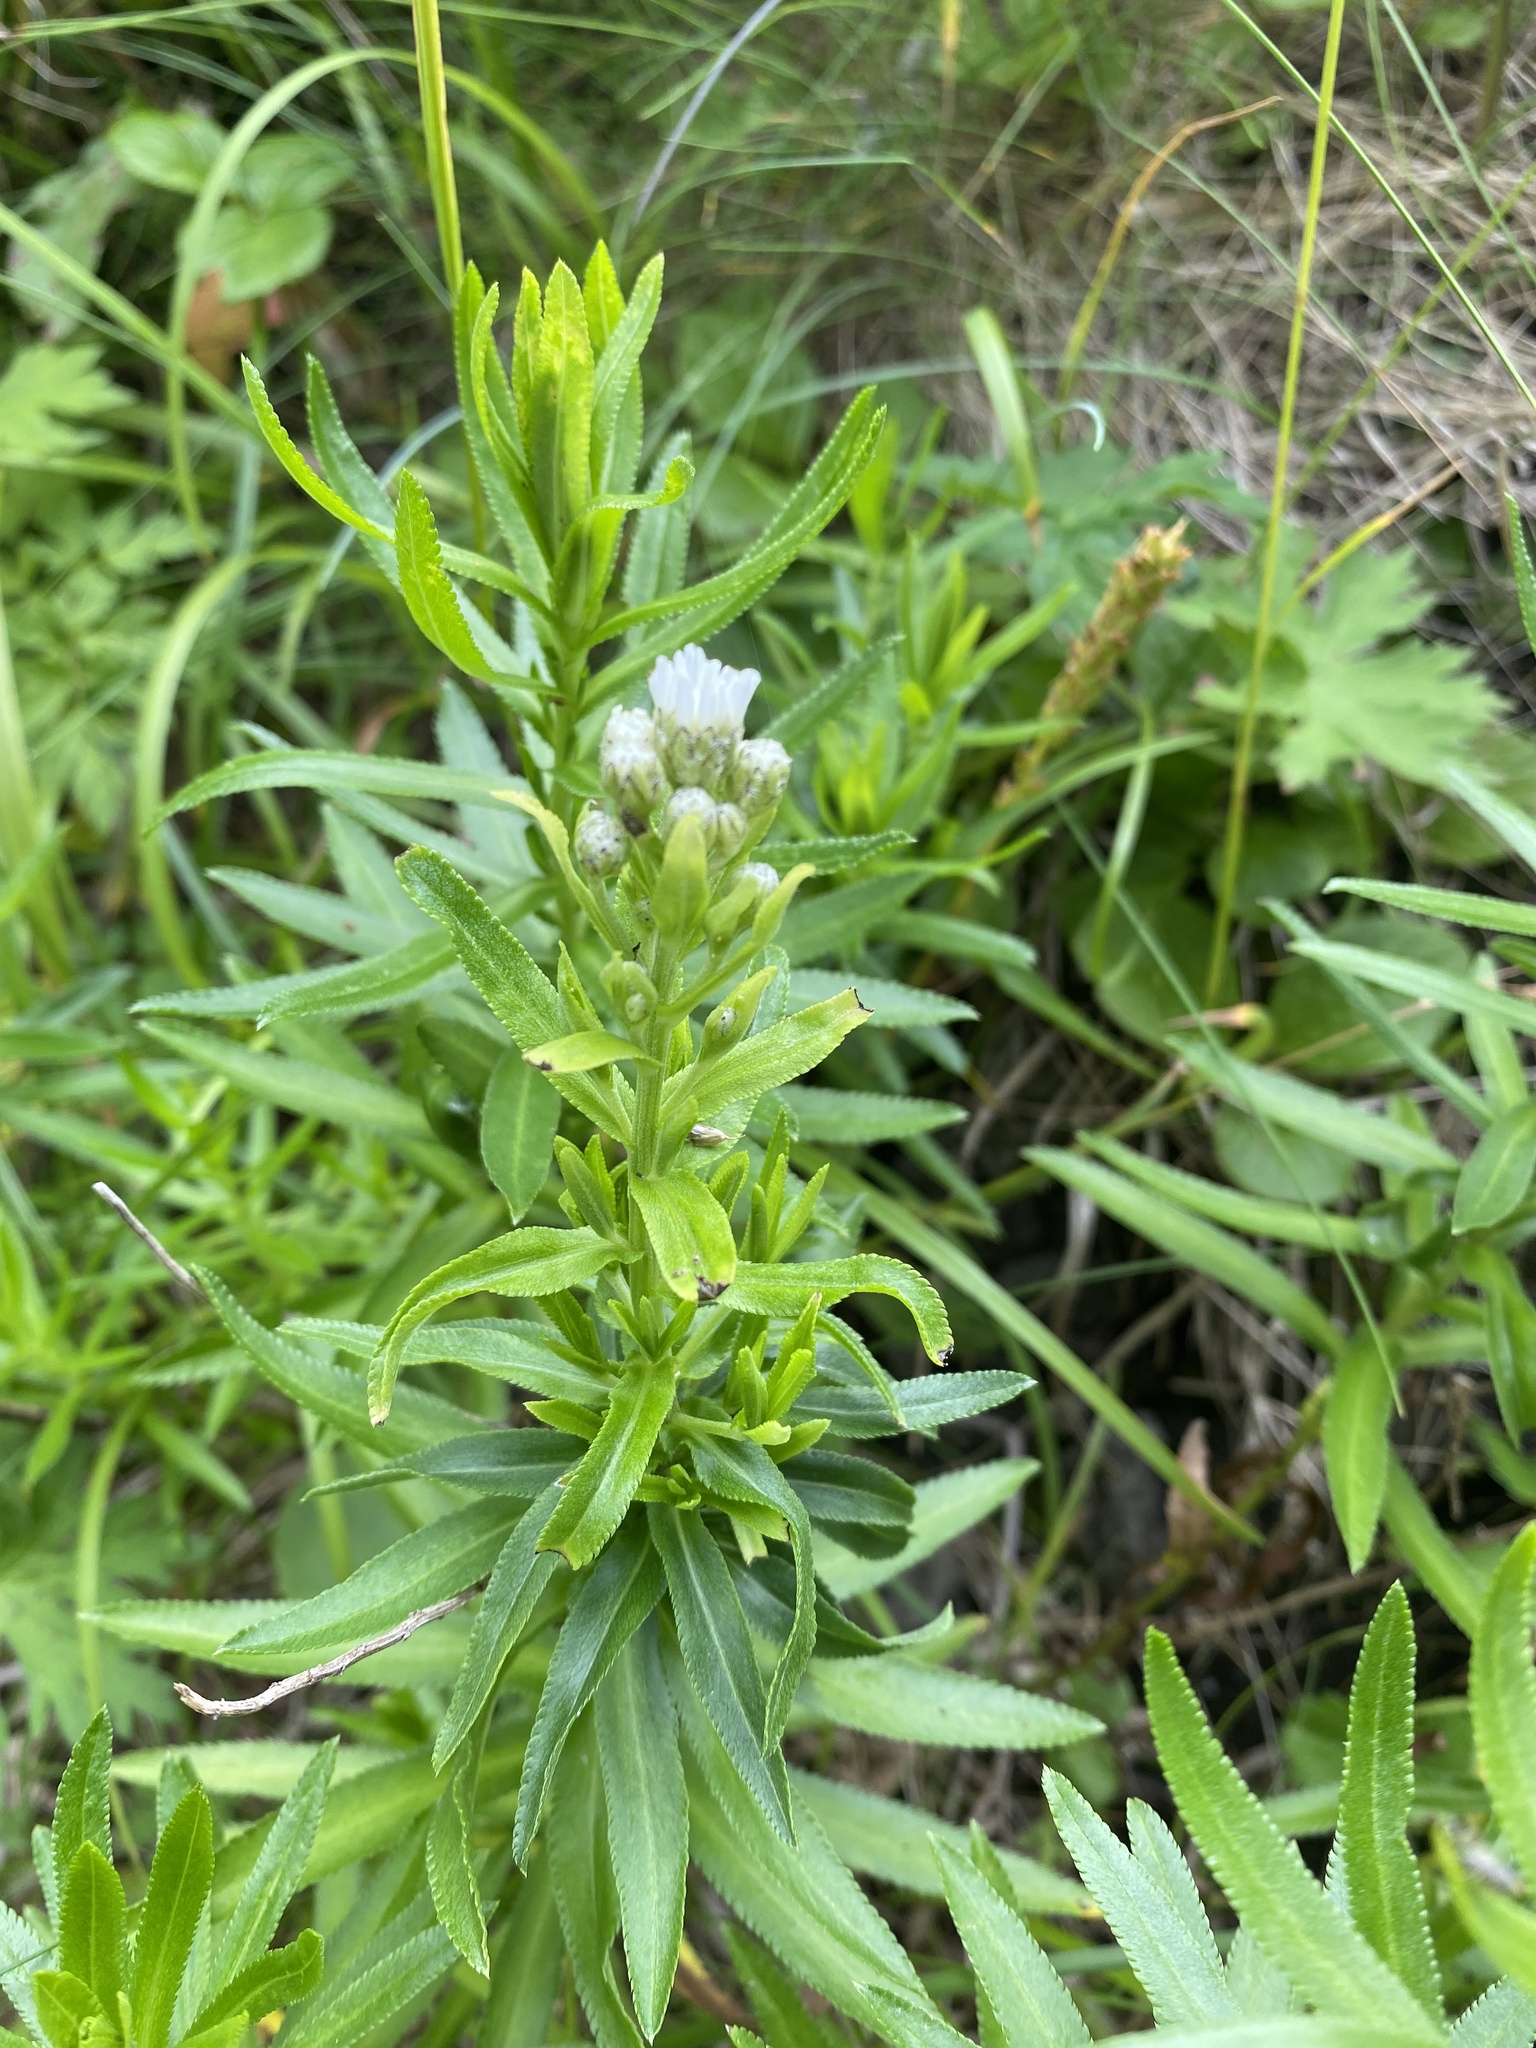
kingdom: Plantae
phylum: Tracheophyta
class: Magnoliopsida
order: Asterales
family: Asteraceae
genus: Achillea
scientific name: Achillea ptarmica
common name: Sneezeweed
